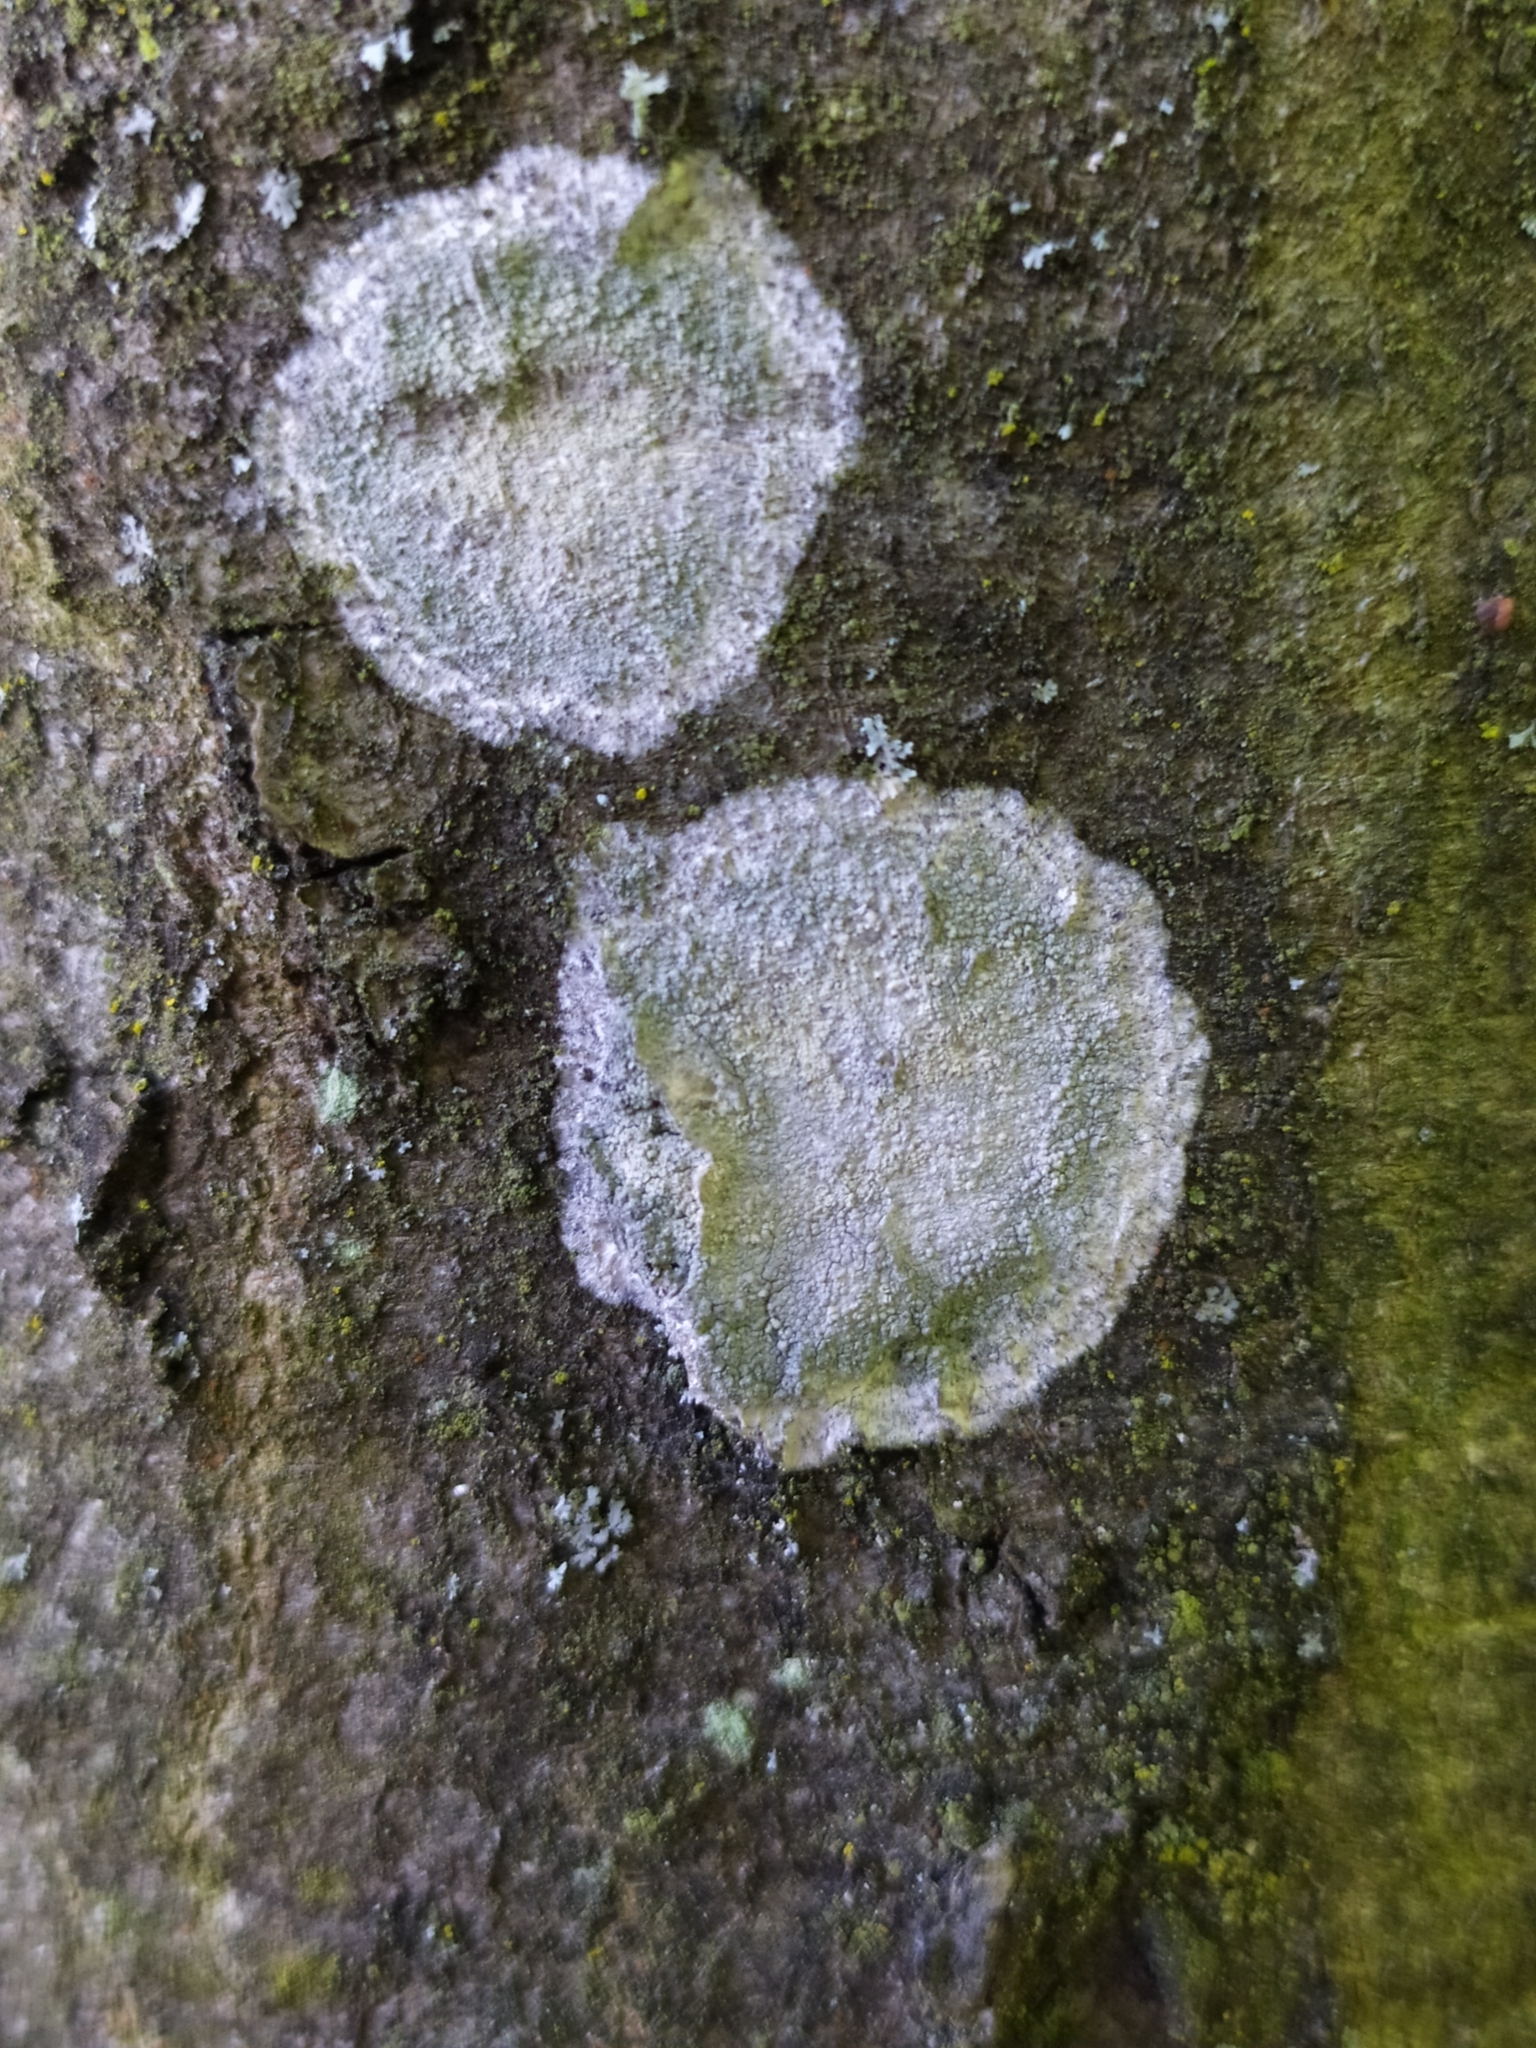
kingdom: Fungi
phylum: Ascomycota
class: Lecanoromycetes
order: Ostropales
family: Phlyctidaceae
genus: Phlyctis
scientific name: Phlyctis argena
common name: Whitewash lichen
